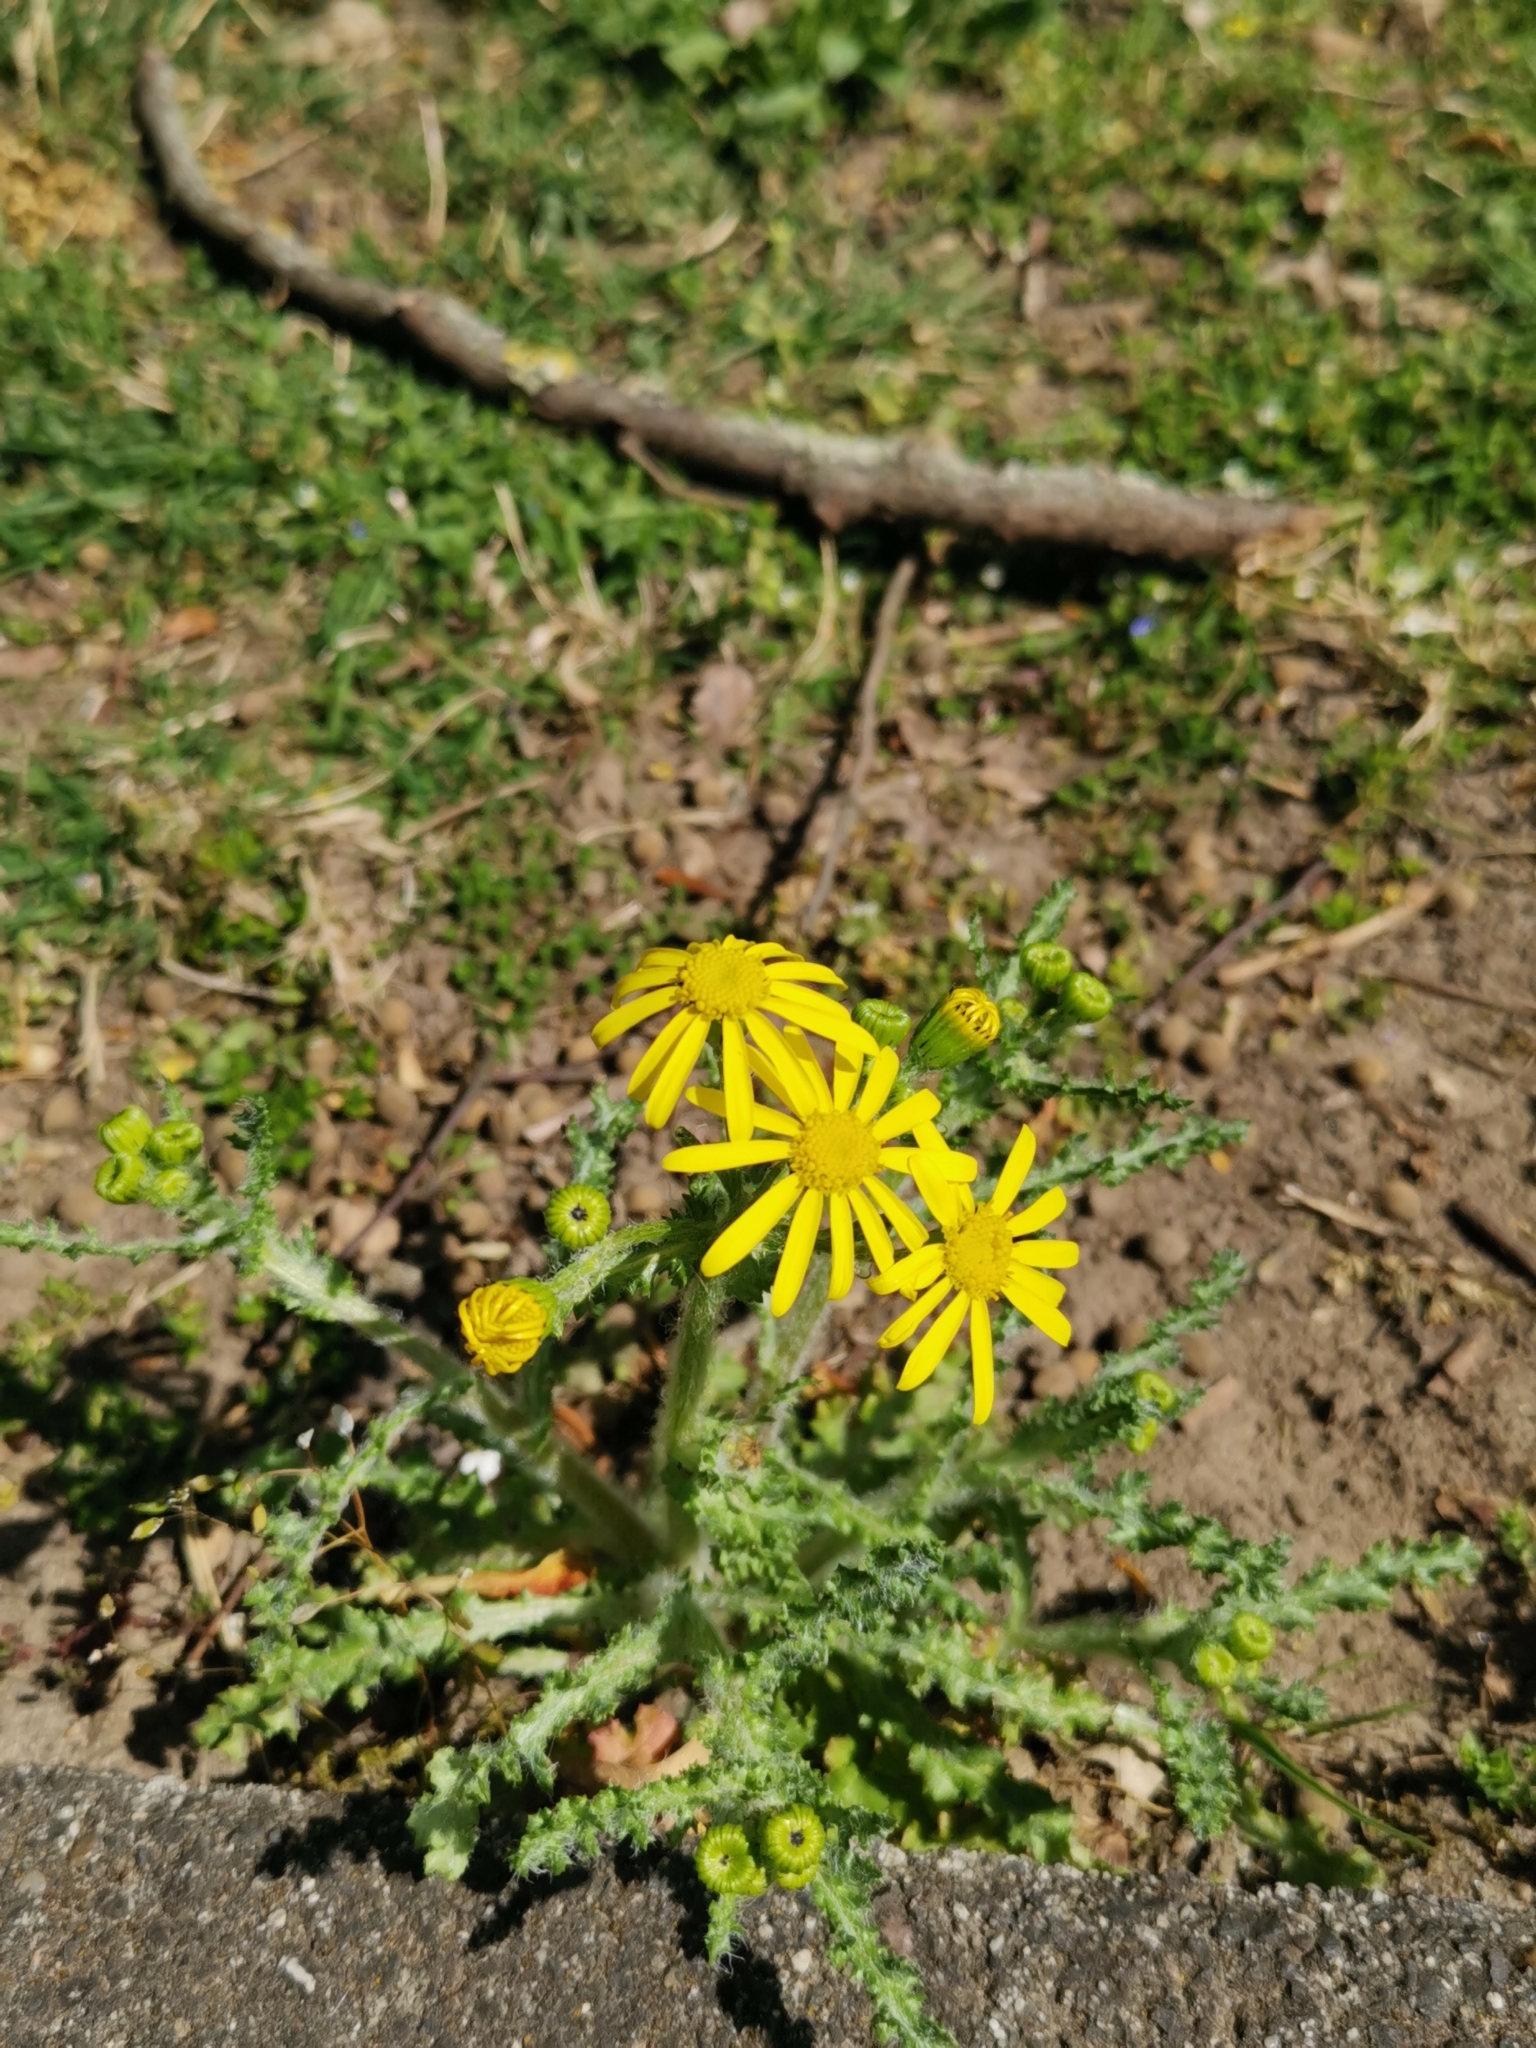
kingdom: Plantae
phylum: Tracheophyta
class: Magnoliopsida
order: Asterales
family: Asteraceae
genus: Senecio
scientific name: Senecio vernalis
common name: Eastern groundsel
